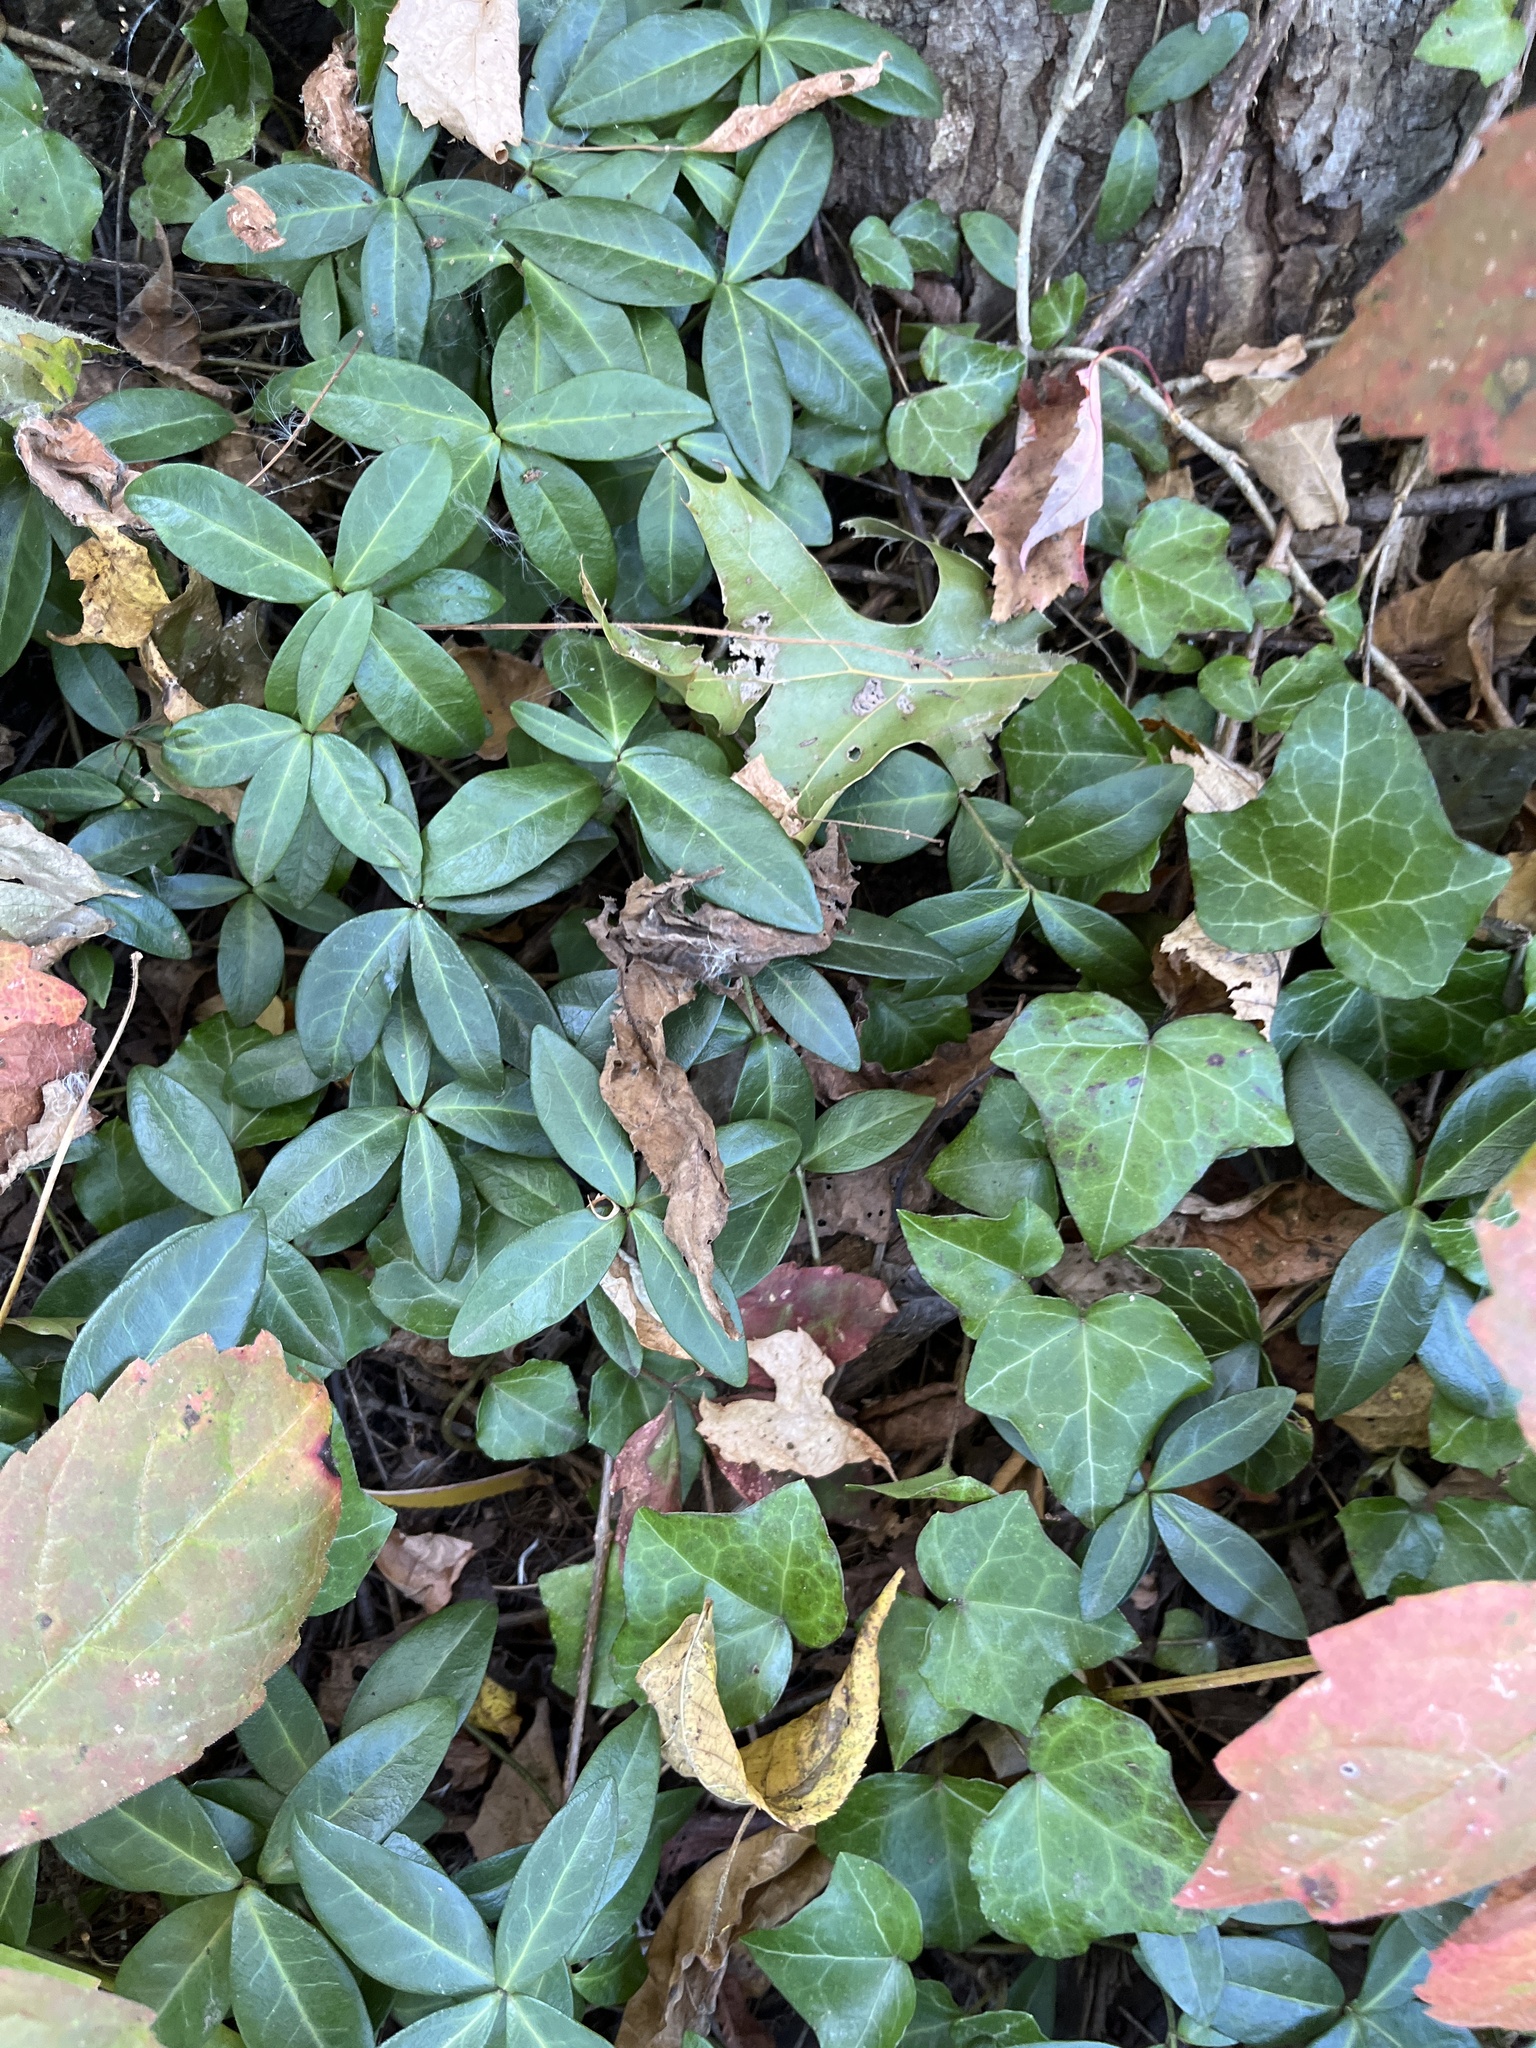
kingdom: Plantae
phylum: Tracheophyta
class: Magnoliopsida
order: Gentianales
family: Apocynaceae
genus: Vinca
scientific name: Vinca minor
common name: Lesser periwinkle
